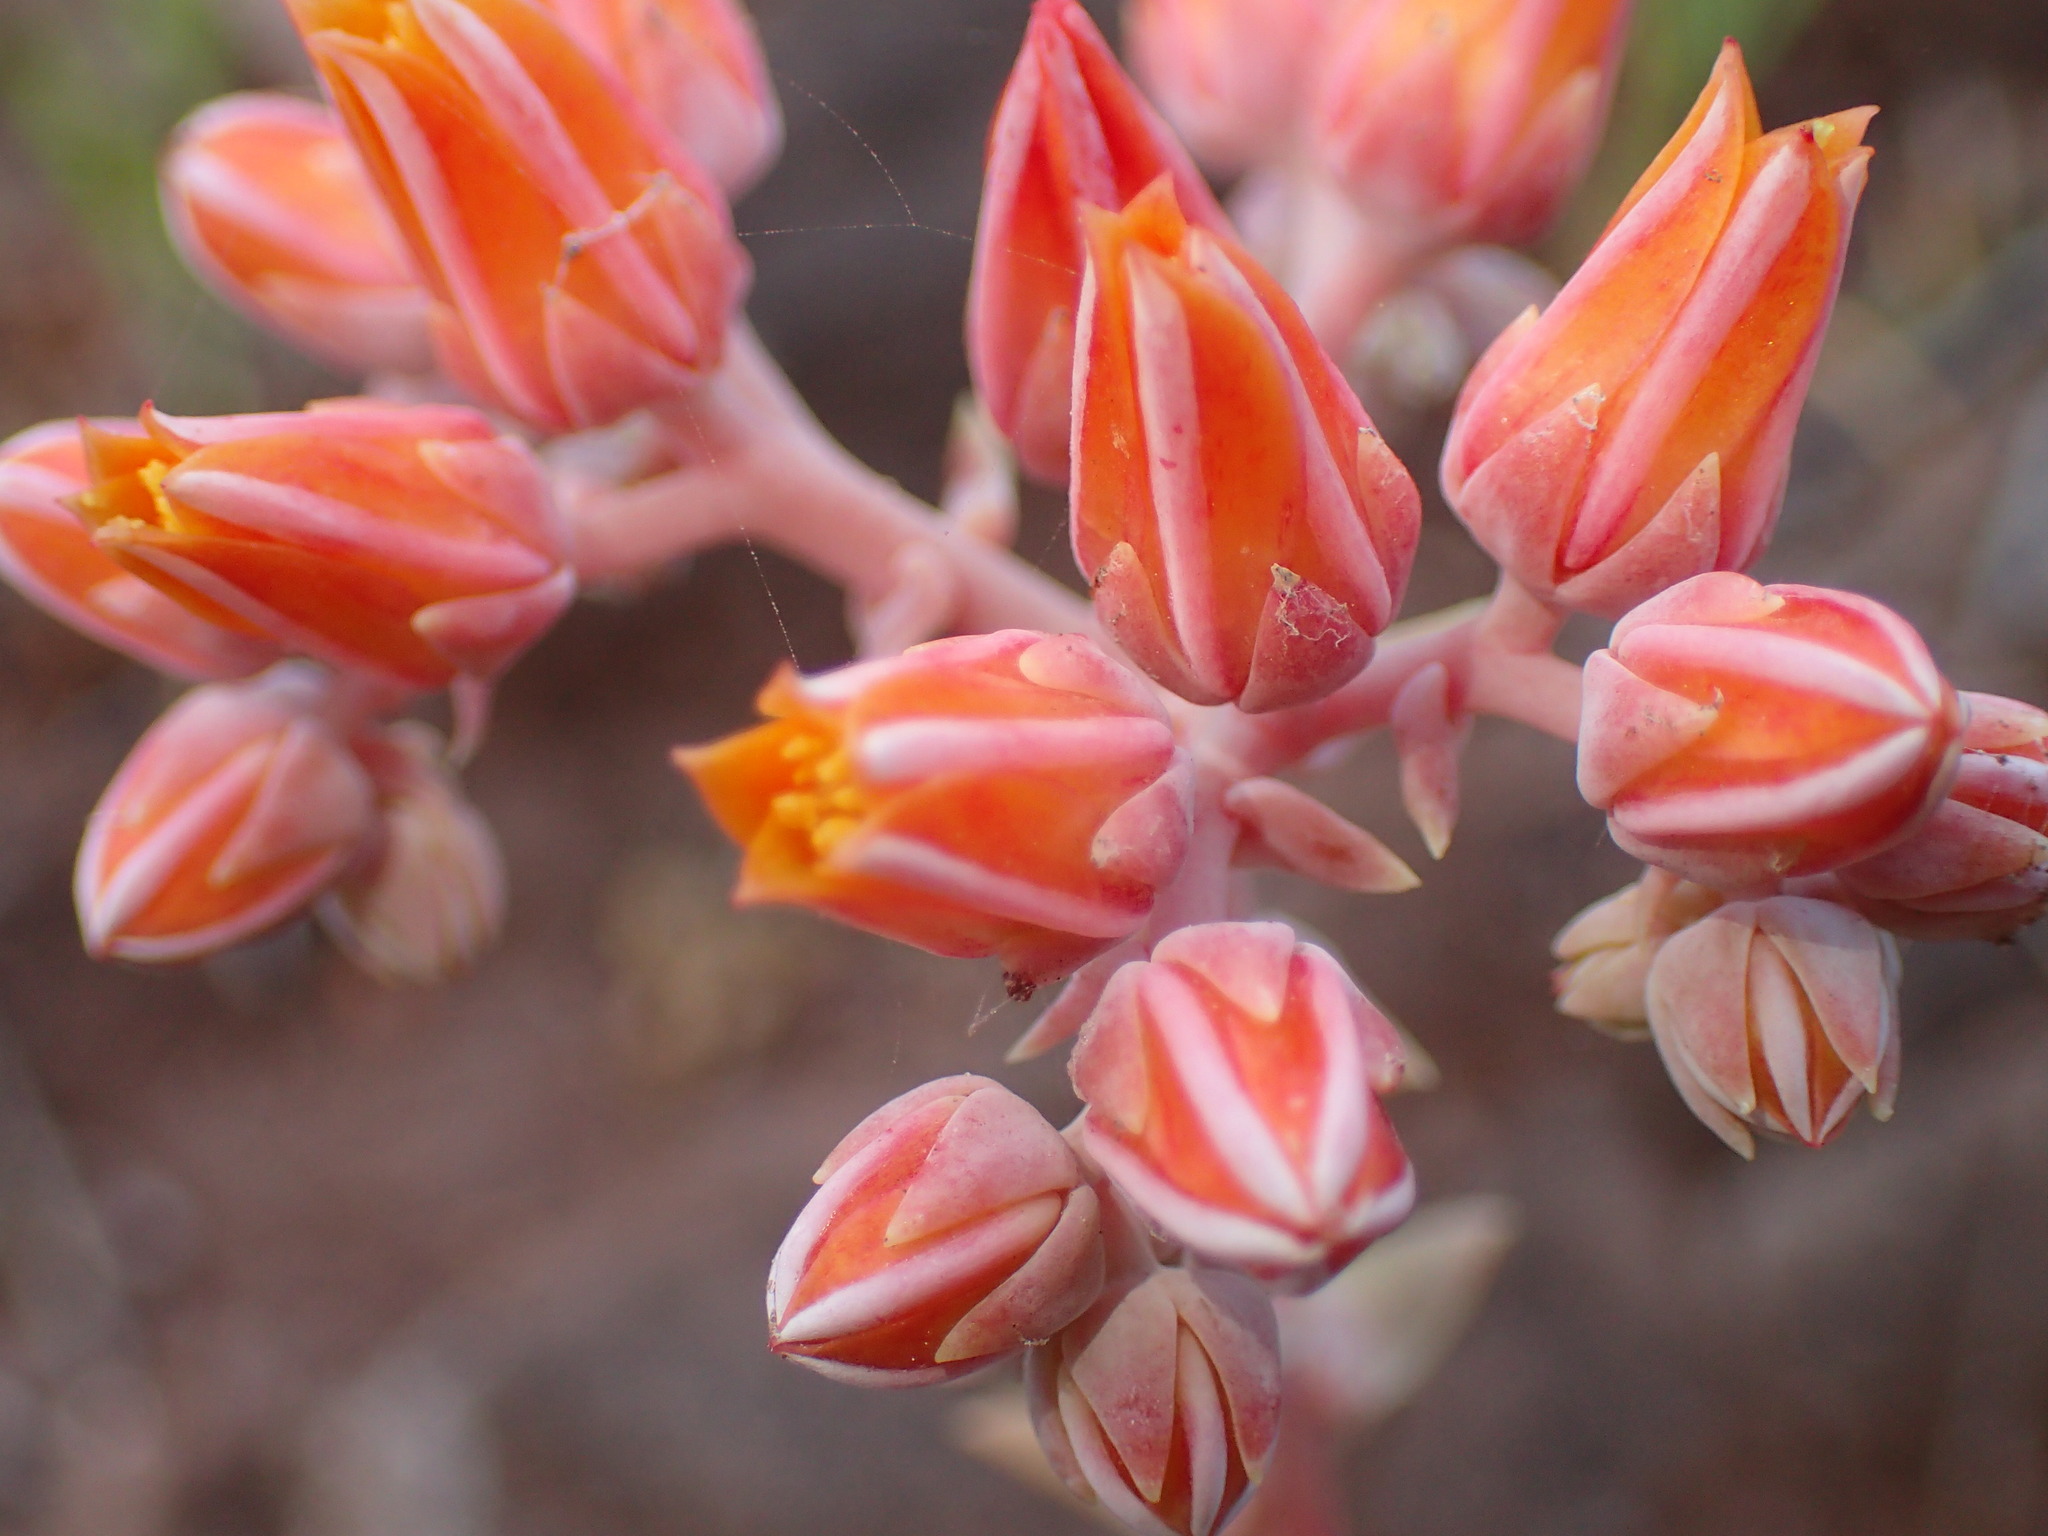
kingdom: Plantae
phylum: Tracheophyta
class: Magnoliopsida
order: Saxifragales
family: Crassulaceae
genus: Dudleya
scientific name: Dudleya lanceolata
